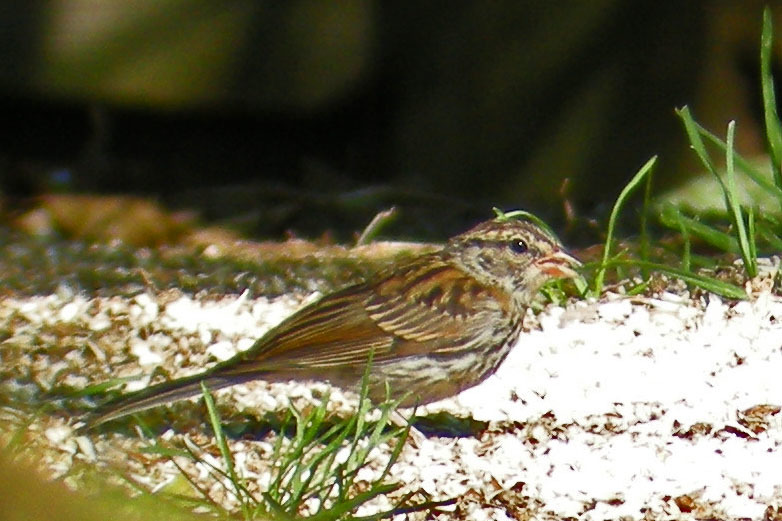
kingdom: Animalia
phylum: Chordata
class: Aves
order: Passeriformes
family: Passerellidae
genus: Spizella
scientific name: Spizella passerina
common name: Chipping sparrow
